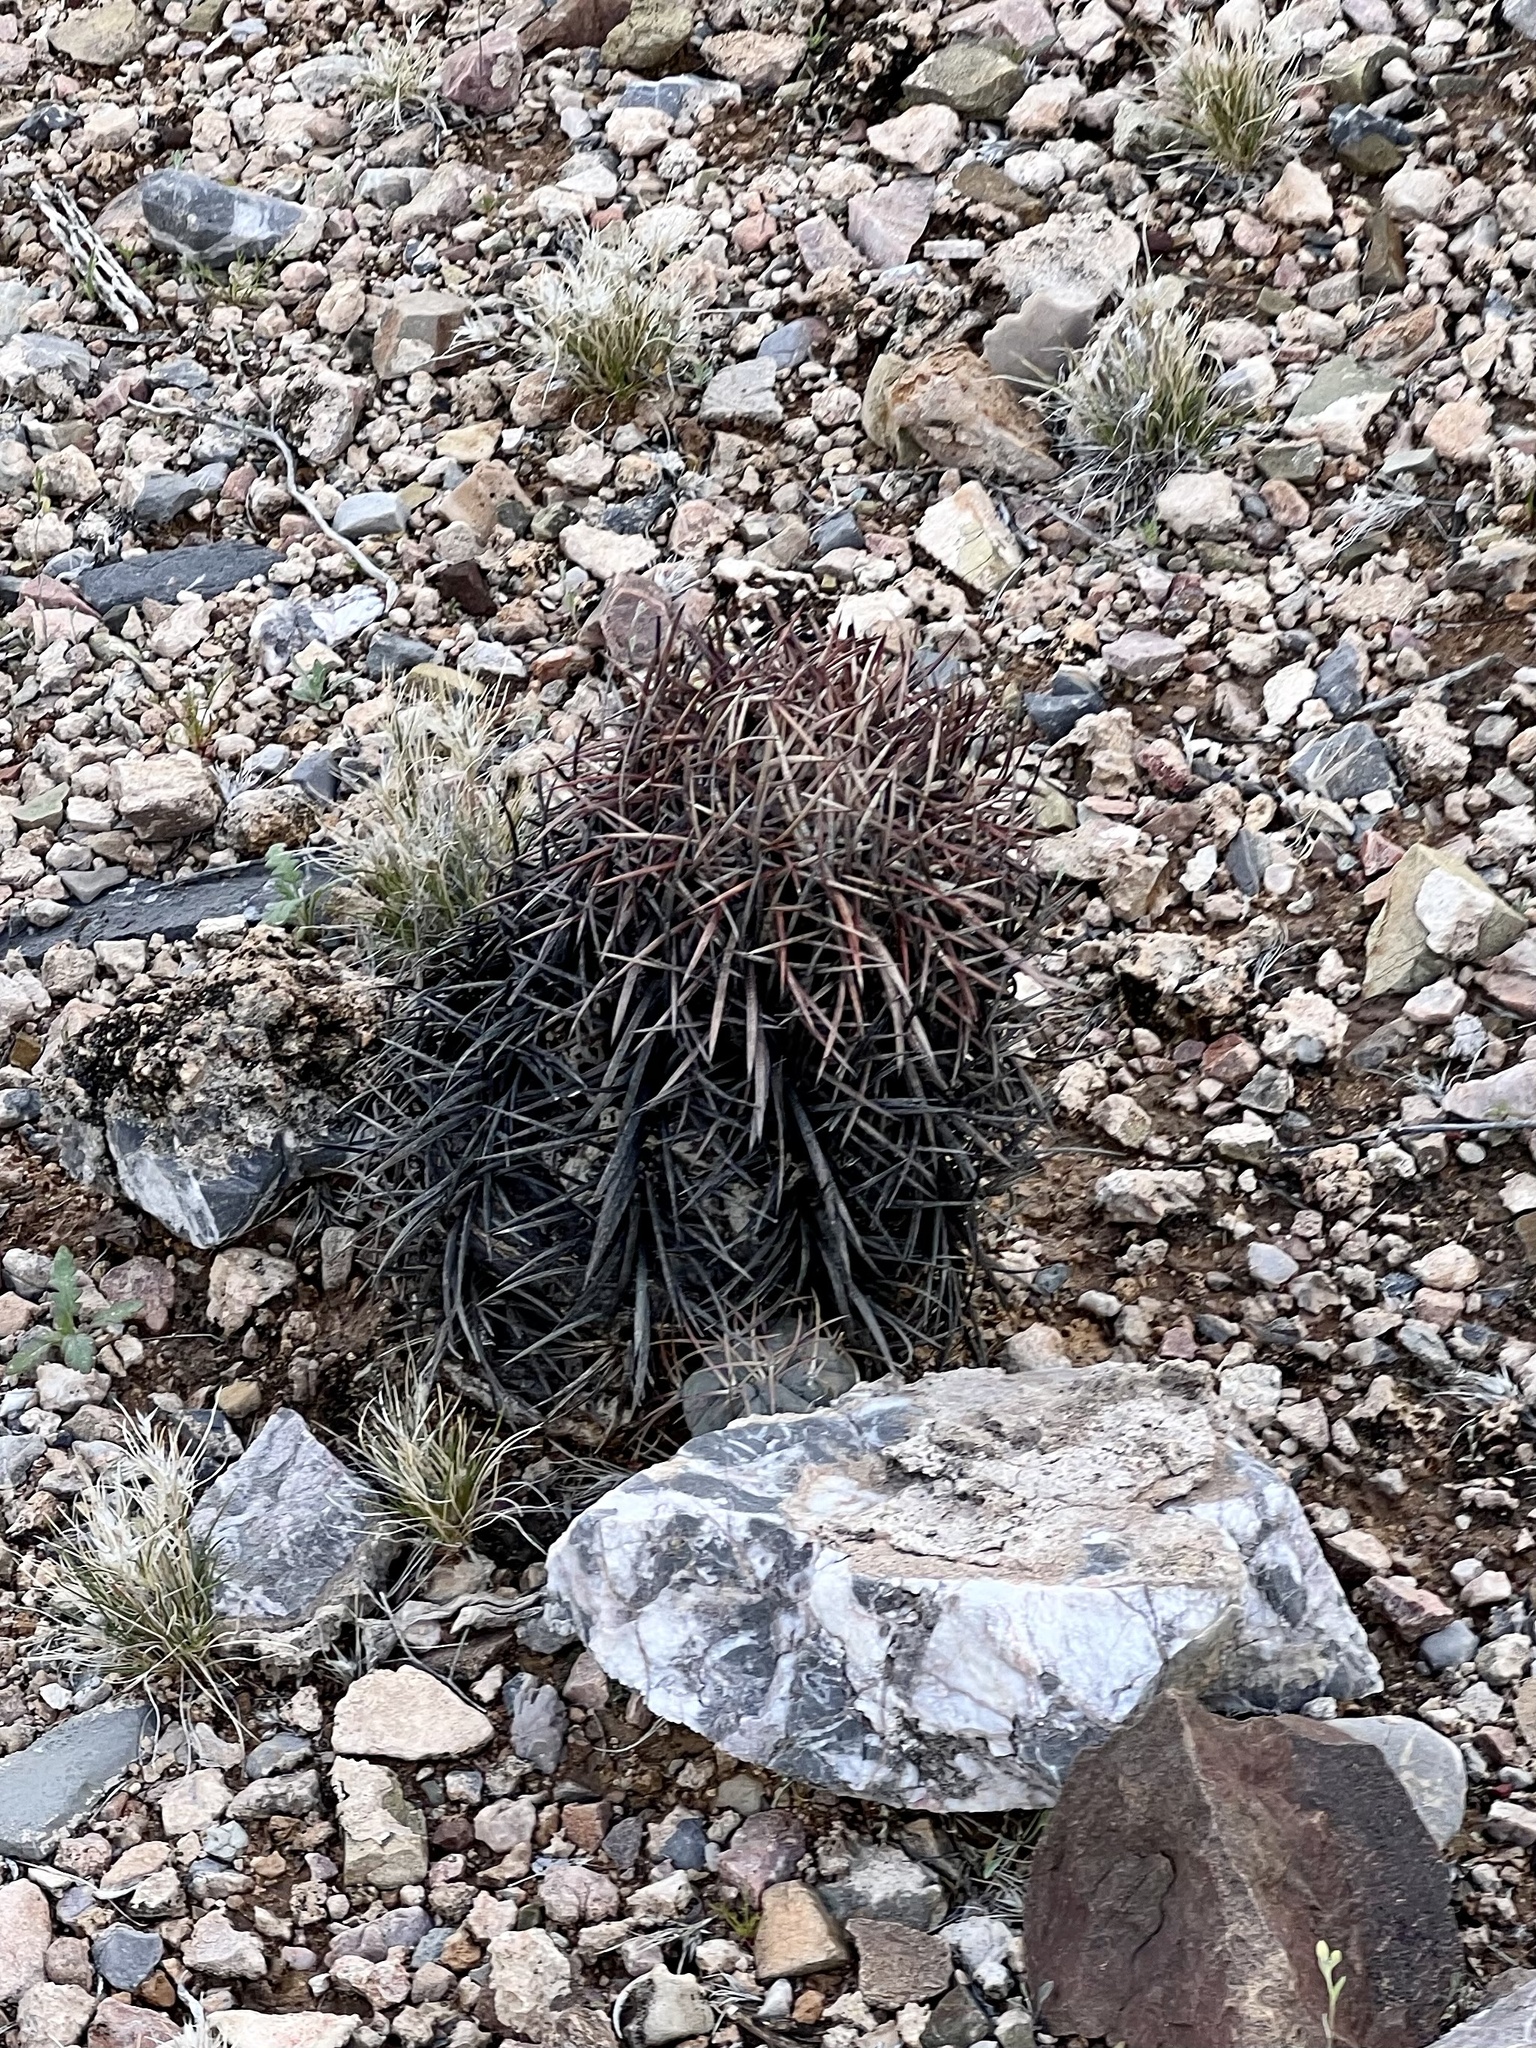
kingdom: Plantae
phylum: Tracheophyta
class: Magnoliopsida
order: Caryophyllales
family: Cactaceae
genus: Echinocactus
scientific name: Echinocactus horizonthalonius
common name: Devilshead
